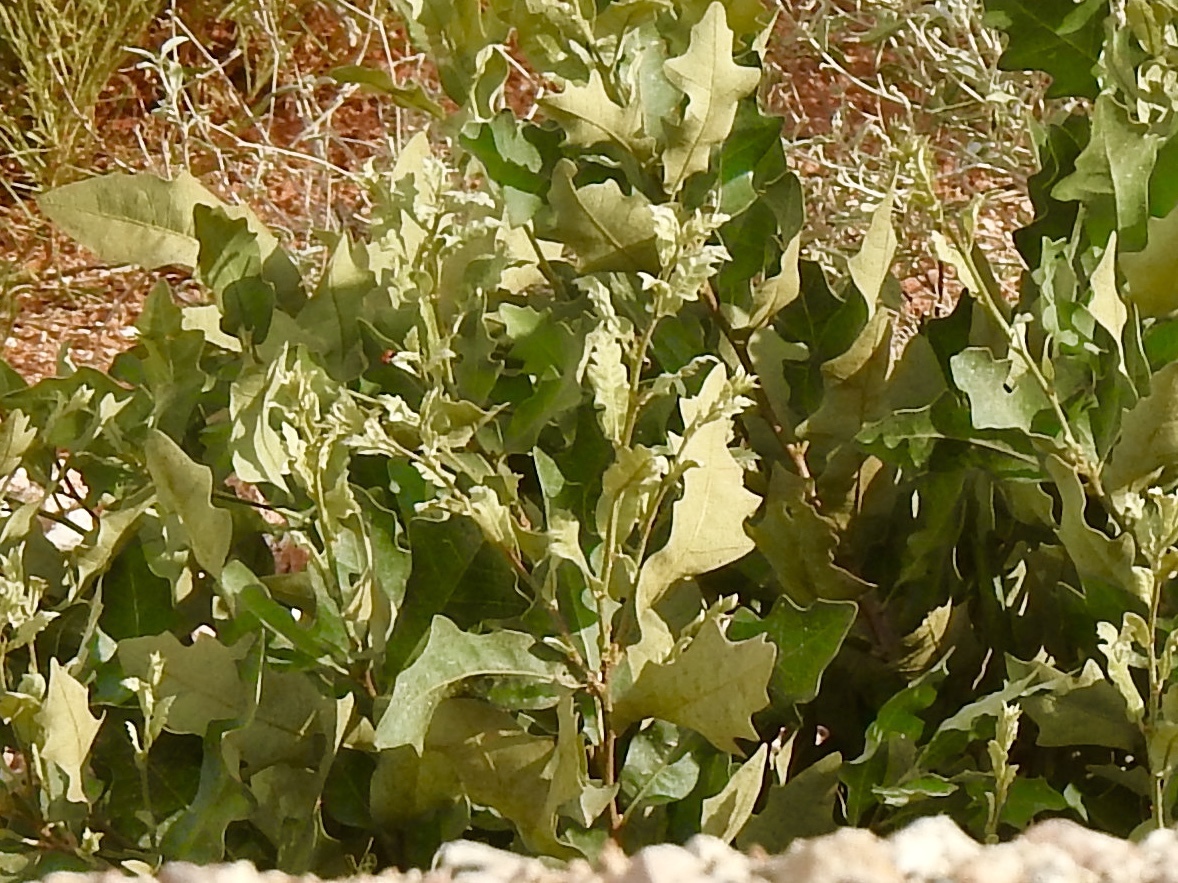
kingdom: Plantae
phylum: Tracheophyta
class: Magnoliopsida
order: Fagales
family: Fagaceae
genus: Quercus
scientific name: Quercus havardii
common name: Shinnery oak
